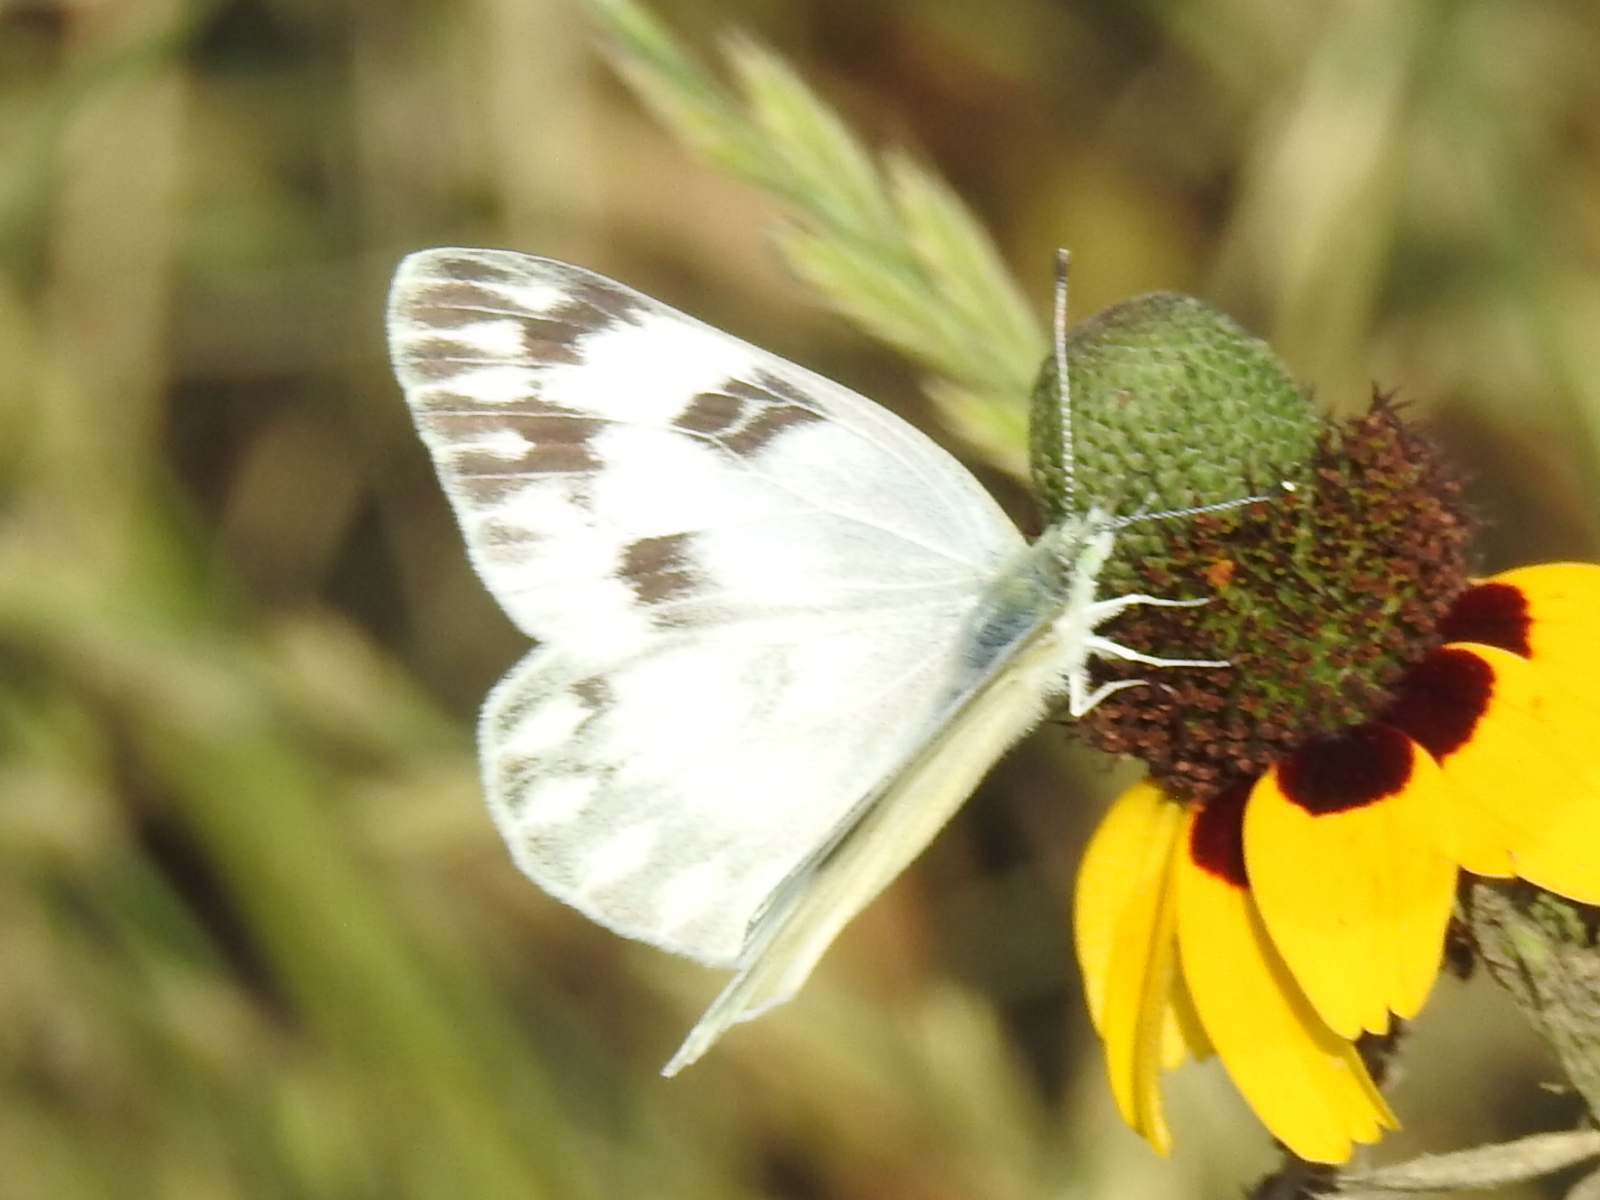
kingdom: Animalia
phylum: Arthropoda
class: Insecta
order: Lepidoptera
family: Pieridae
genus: Pontia
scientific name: Pontia protodice
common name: Checkered white
